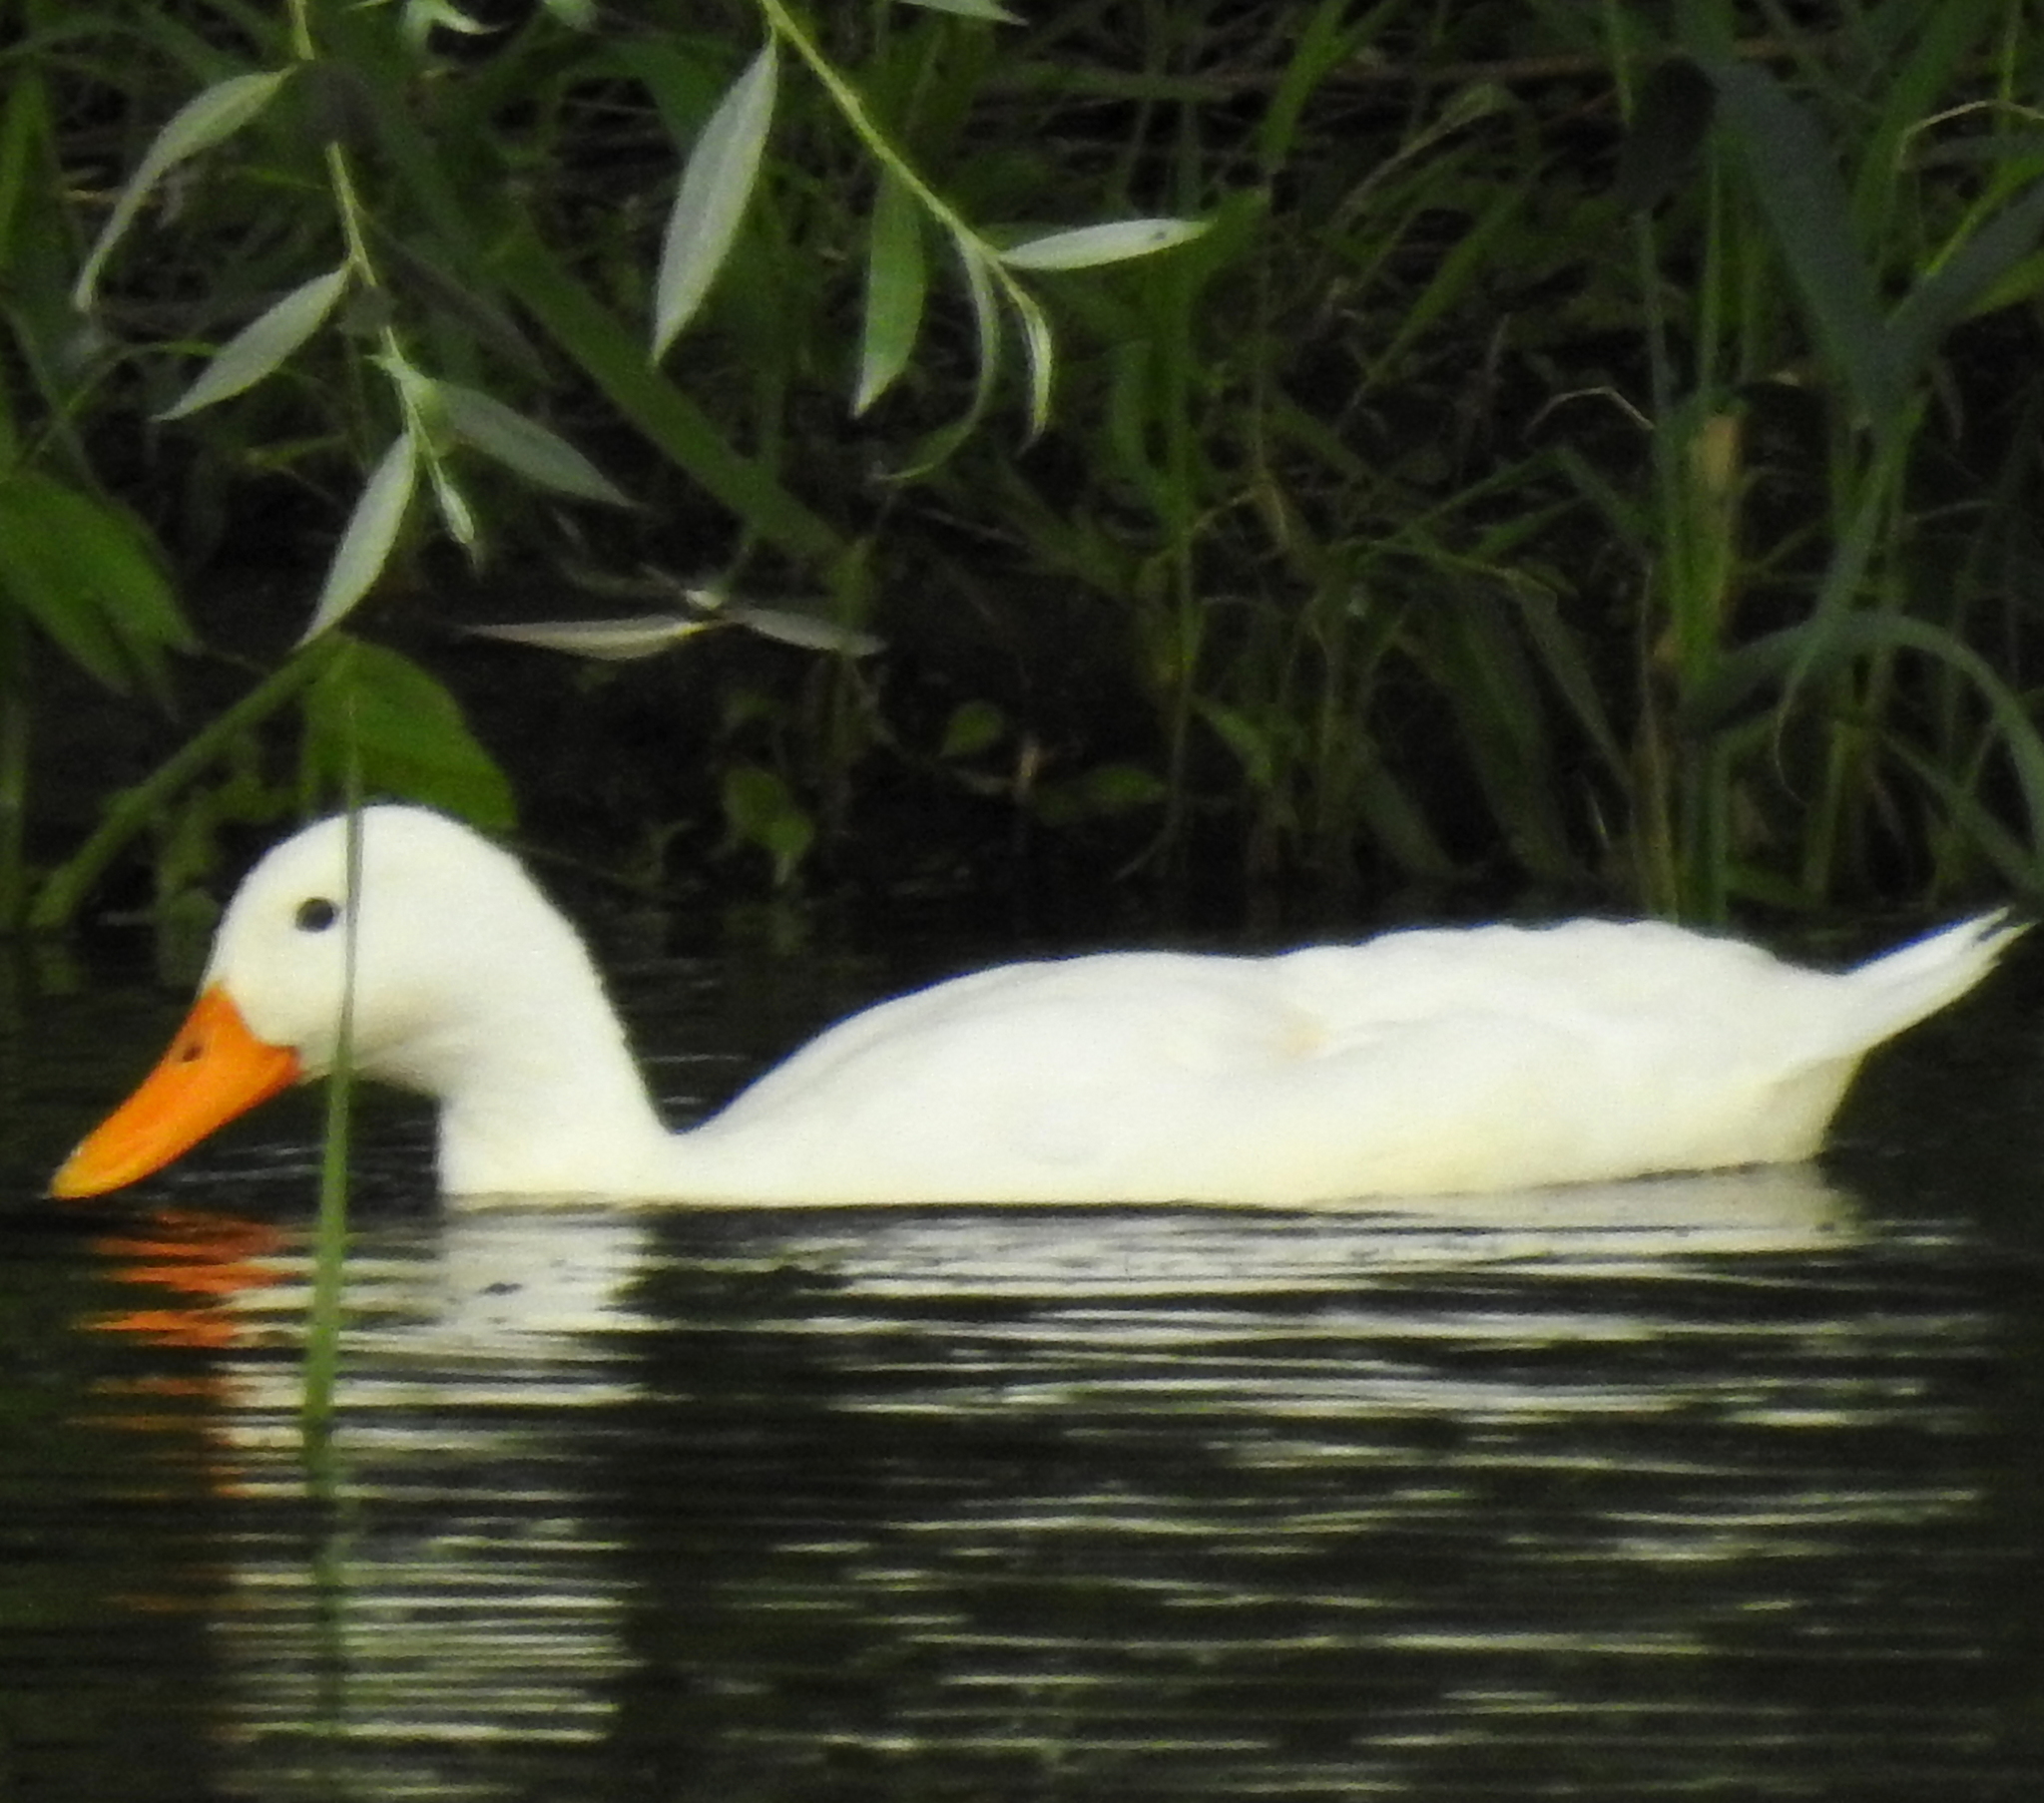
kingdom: Animalia
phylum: Chordata
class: Aves
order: Anseriformes
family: Anatidae
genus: Anas
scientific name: Anas platyrhynchos
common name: Mallard
